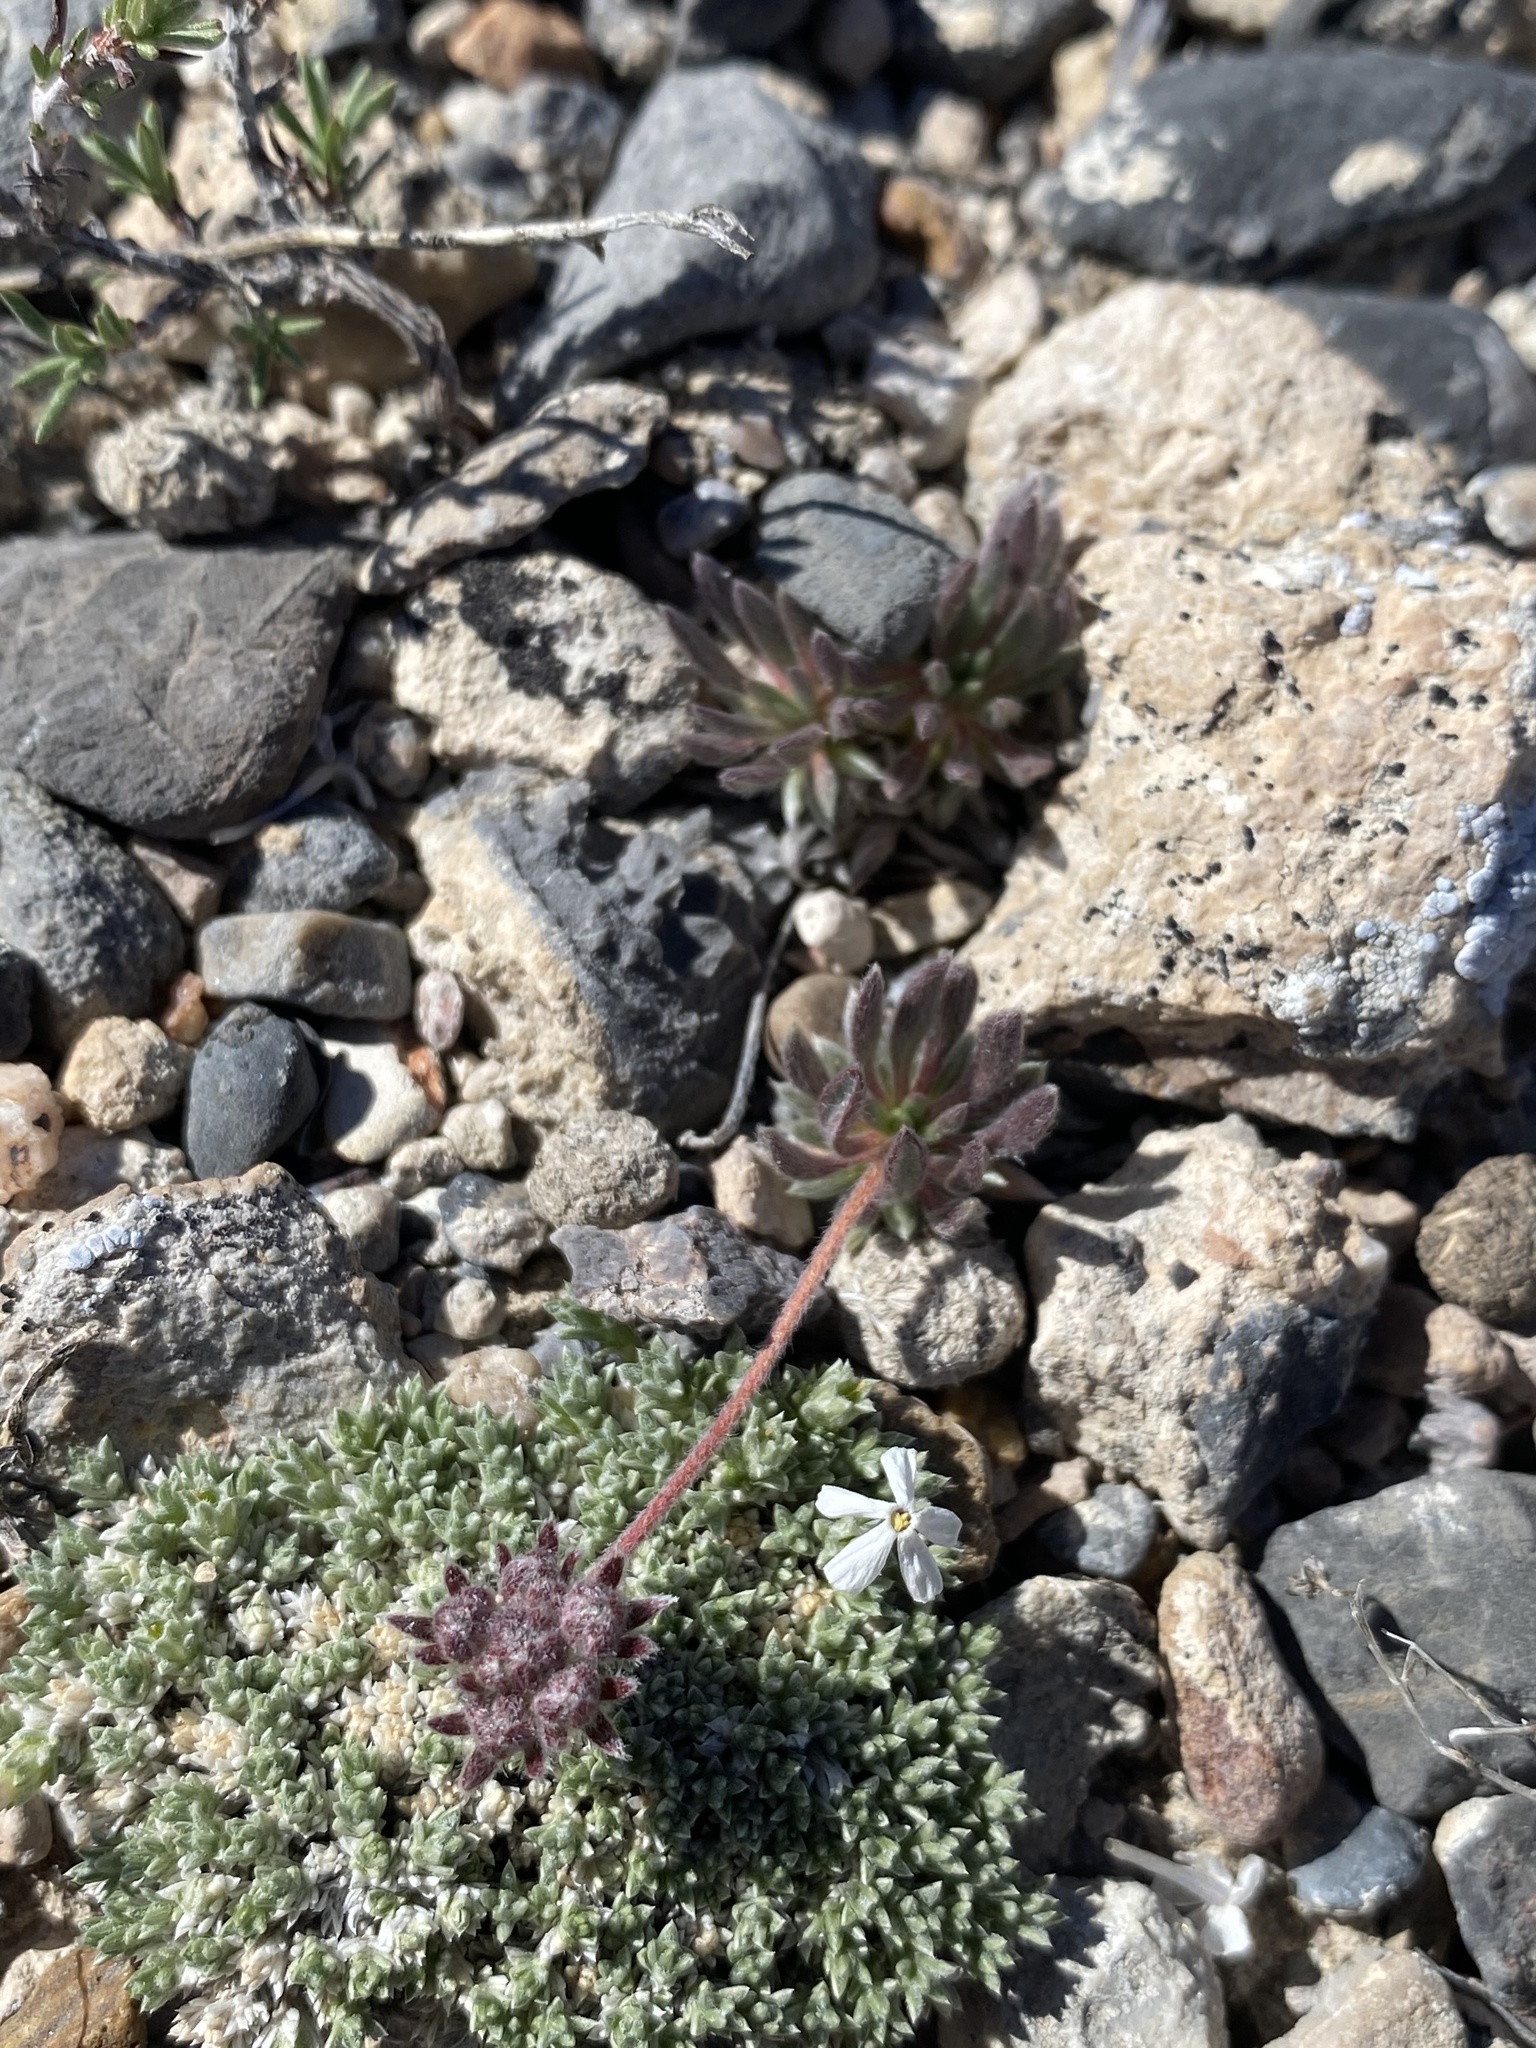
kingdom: Plantae
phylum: Tracheophyta
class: Magnoliopsida
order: Caryophyllales
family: Polygonaceae
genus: Eriogonum
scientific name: Eriogonum villiflorum
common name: Gray's wild buckwheat
